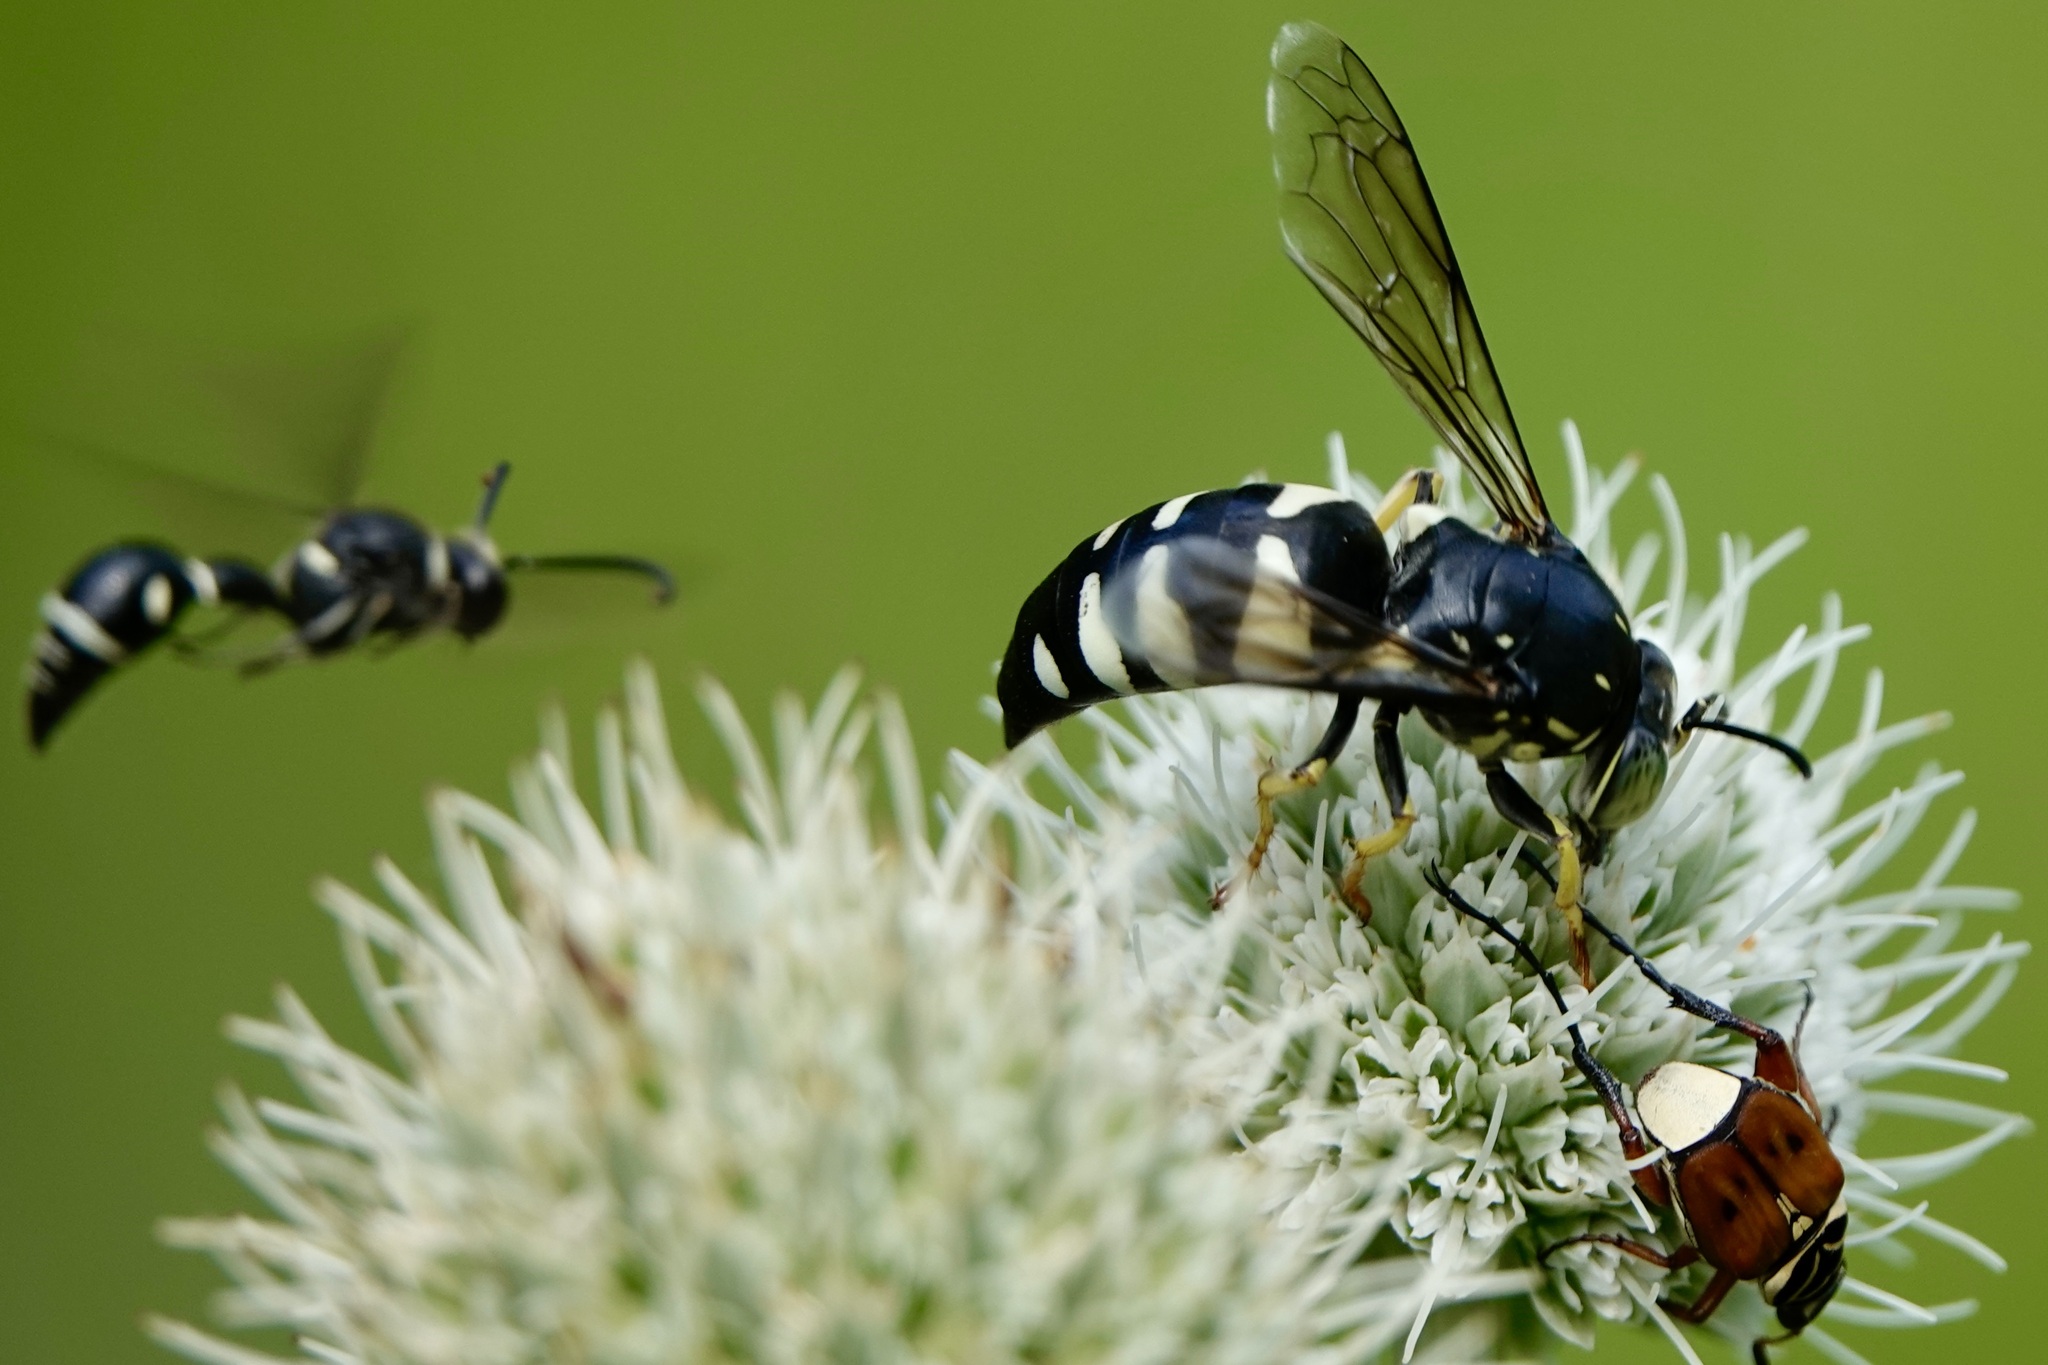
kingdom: Animalia
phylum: Arthropoda
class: Insecta
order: Hymenoptera
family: Vespidae
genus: Eumenes
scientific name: Eumenes fraternus
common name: Fraternal potter wasp
